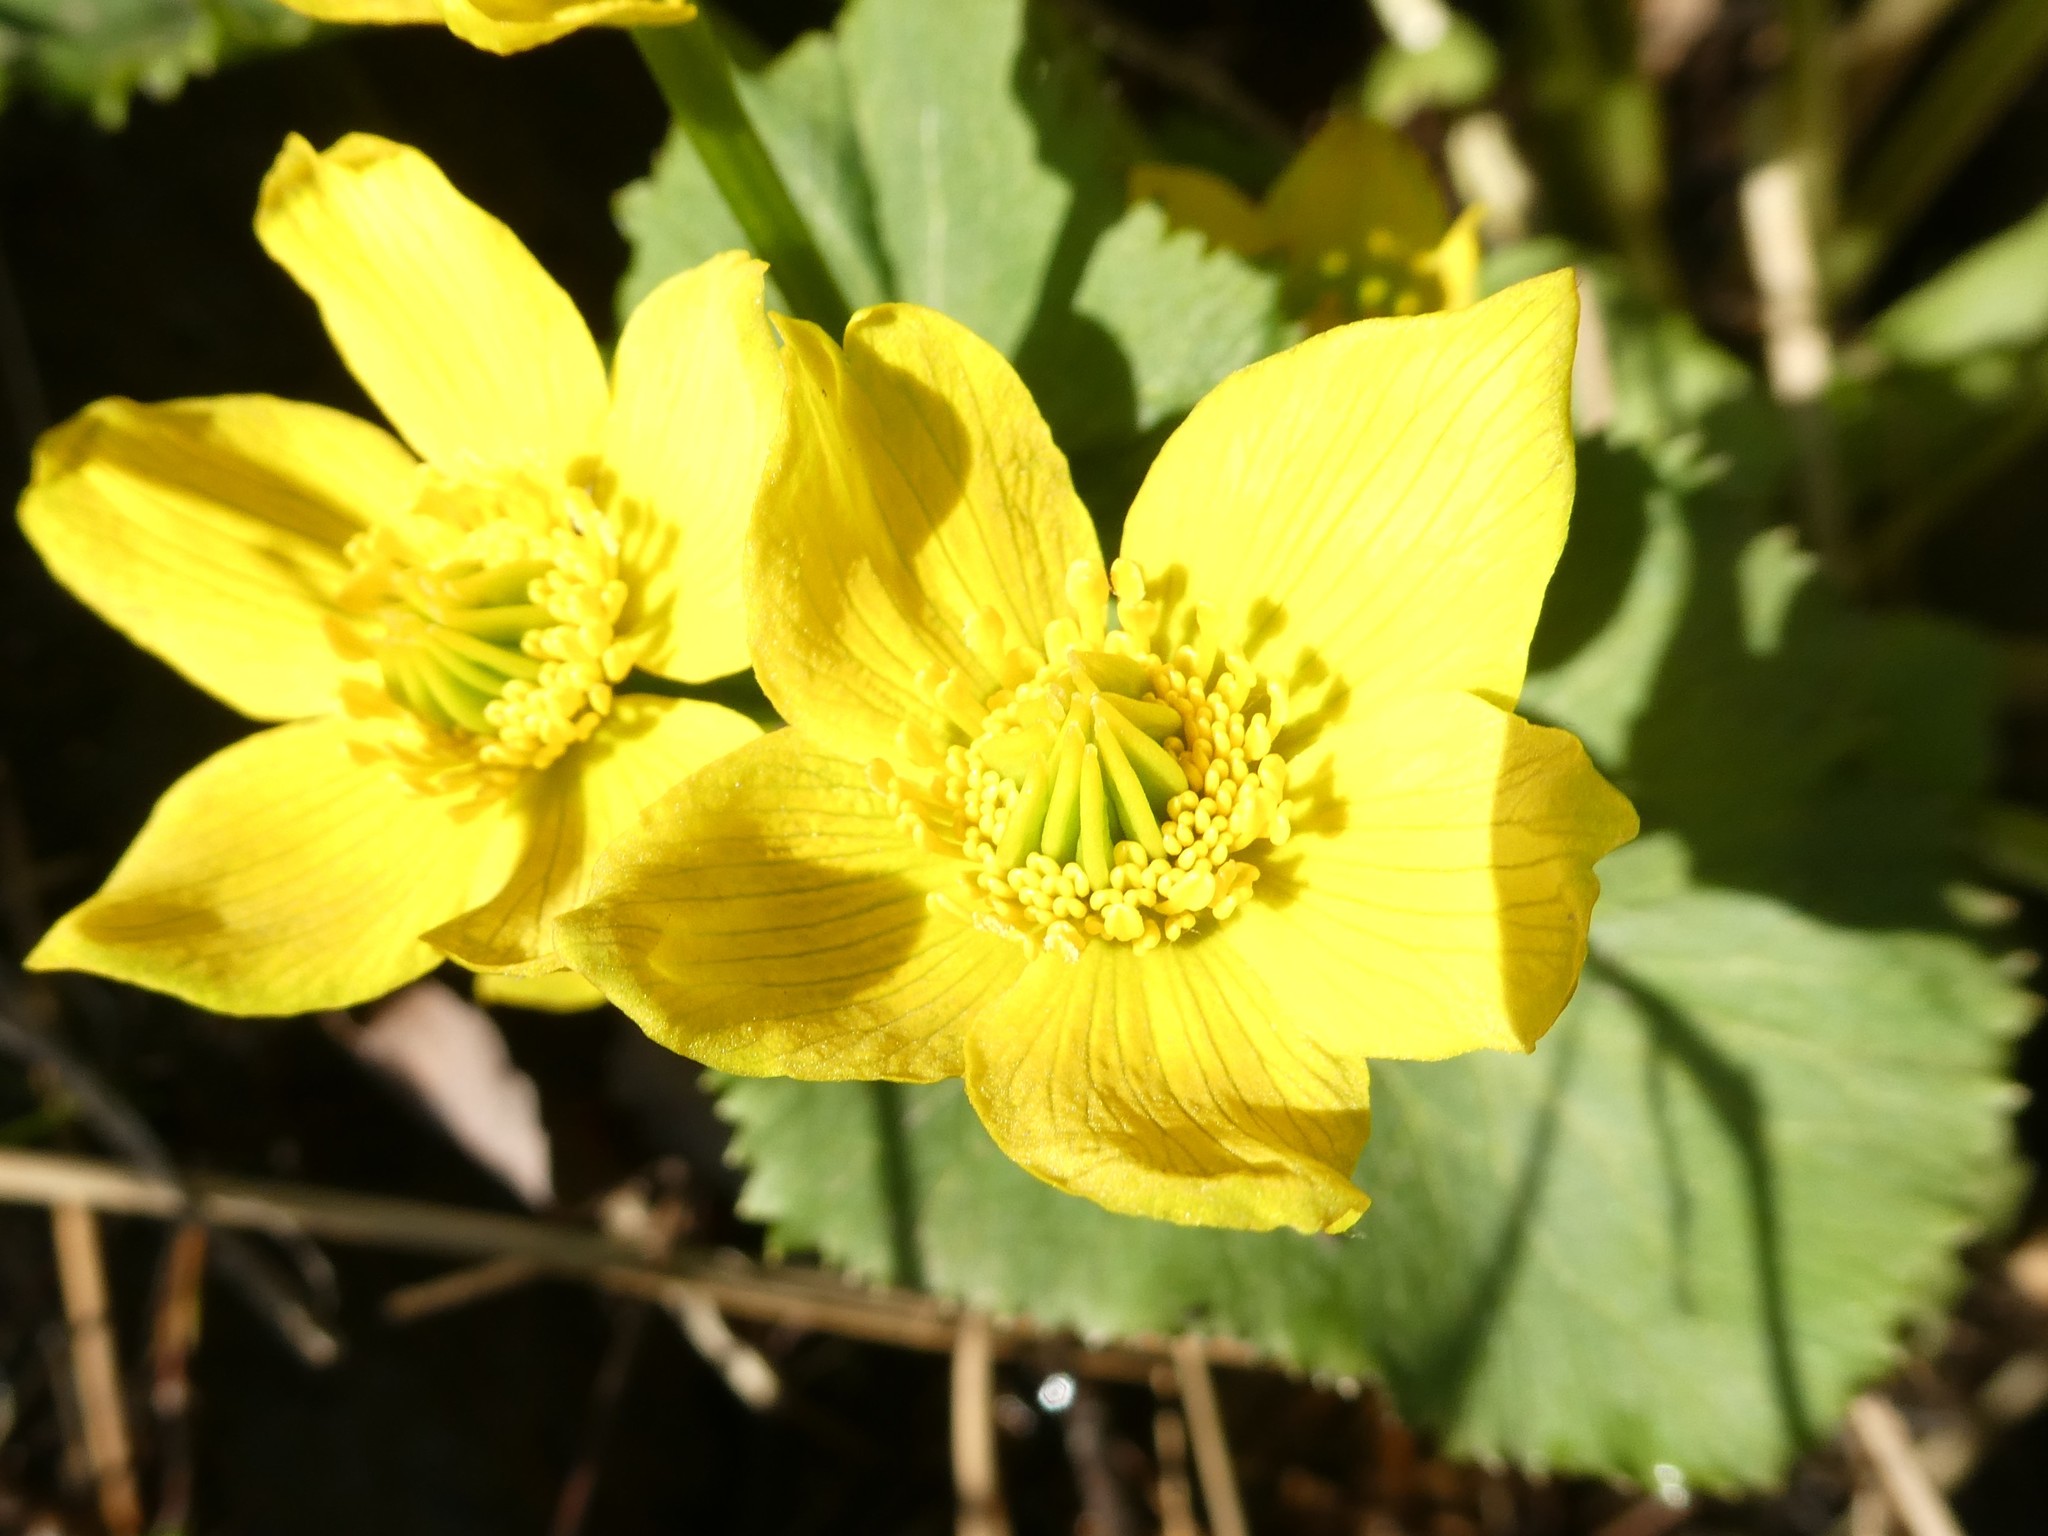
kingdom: Plantae
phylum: Tracheophyta
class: Magnoliopsida
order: Ranunculales
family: Ranunculaceae
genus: Caltha
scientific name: Caltha palustris
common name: Marsh marigold
